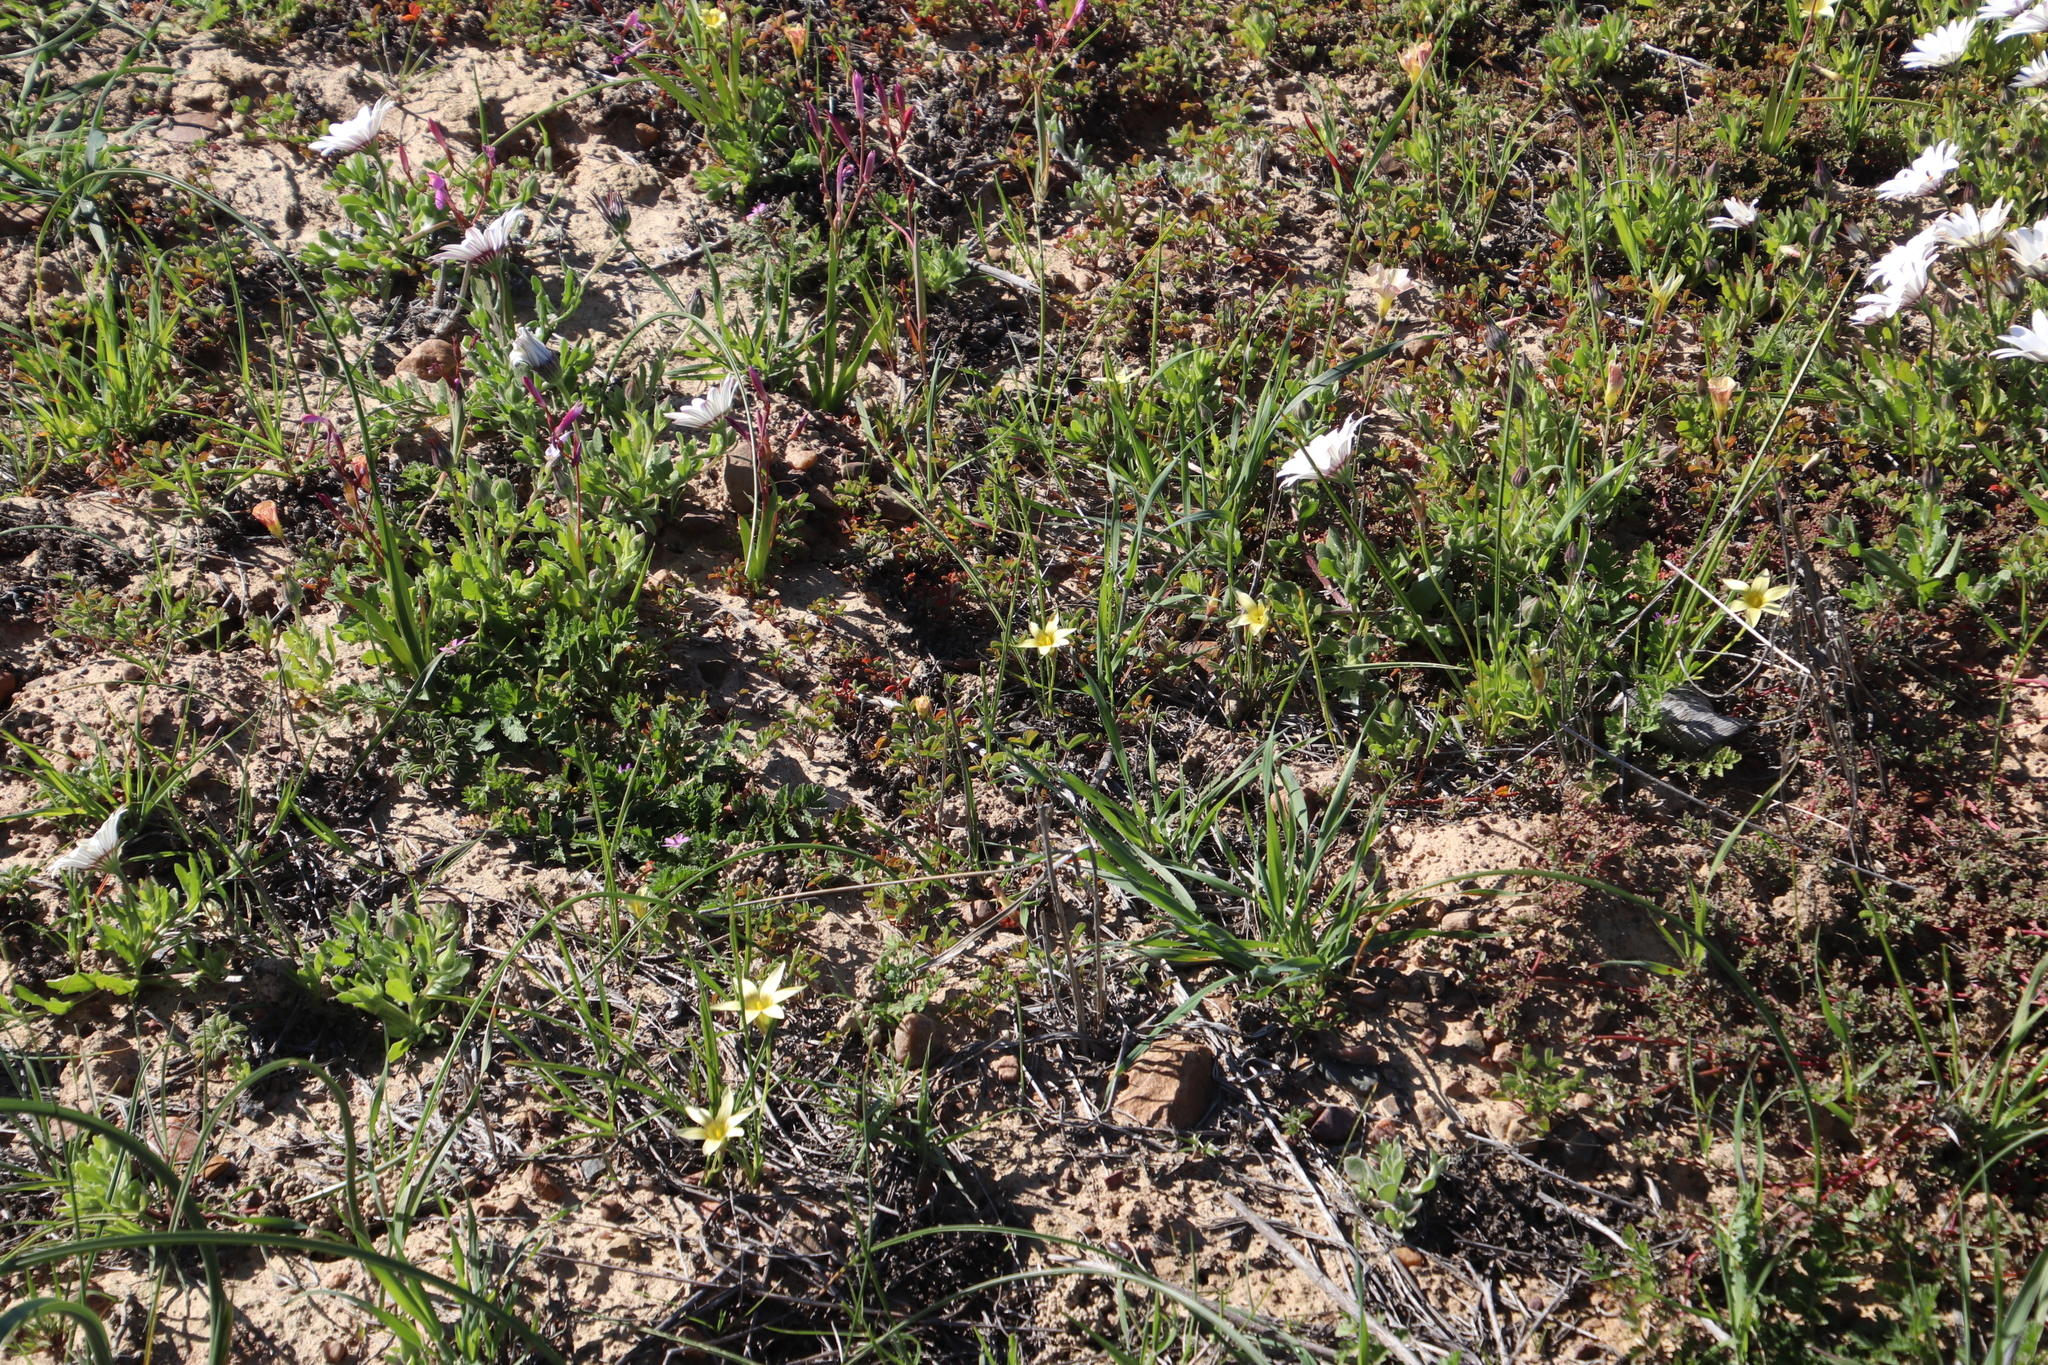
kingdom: Plantae
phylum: Tracheophyta
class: Liliopsida
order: Asparagales
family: Iridaceae
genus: Romulea
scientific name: Romulea monticola
